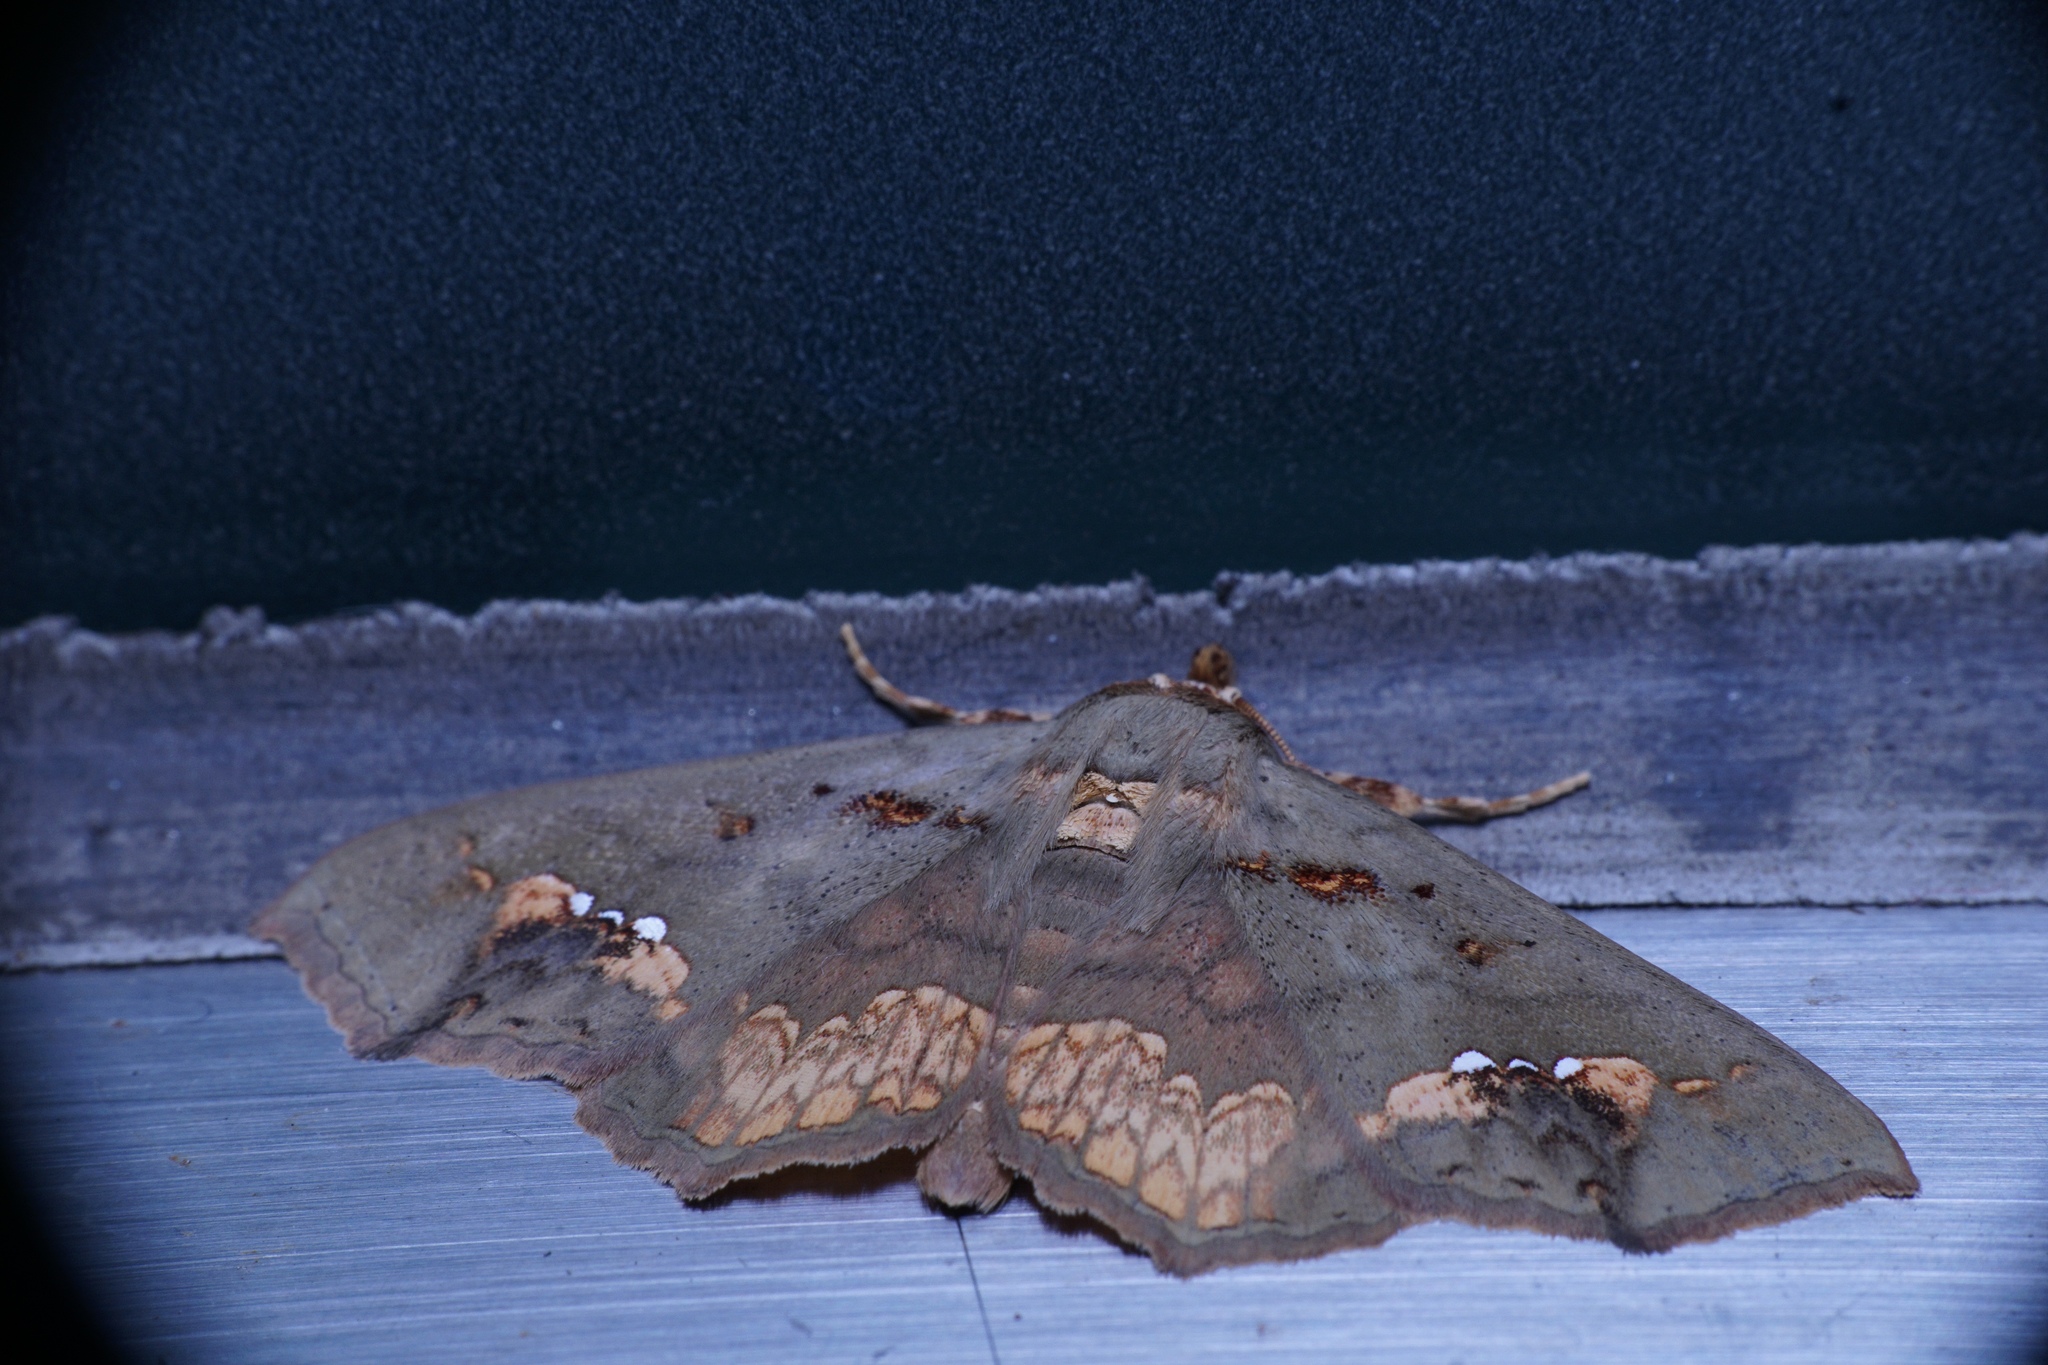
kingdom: Animalia
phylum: Arthropoda
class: Insecta
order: Lepidoptera
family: Erebidae
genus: Lopharthrum
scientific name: Lopharthrum comprimens
